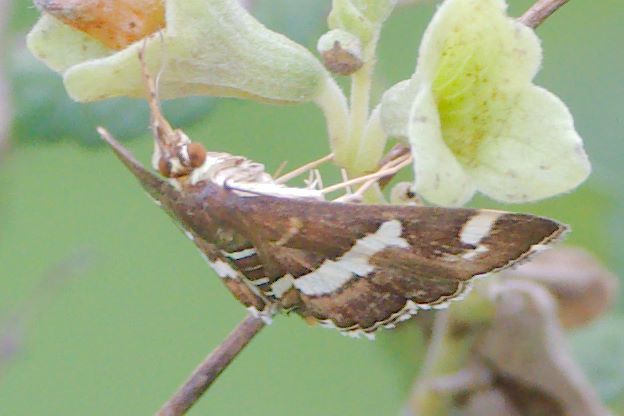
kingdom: Animalia
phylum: Arthropoda
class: Insecta
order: Lepidoptera
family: Crambidae
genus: Spoladea
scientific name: Spoladea recurvalis
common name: Beet webworm moth
